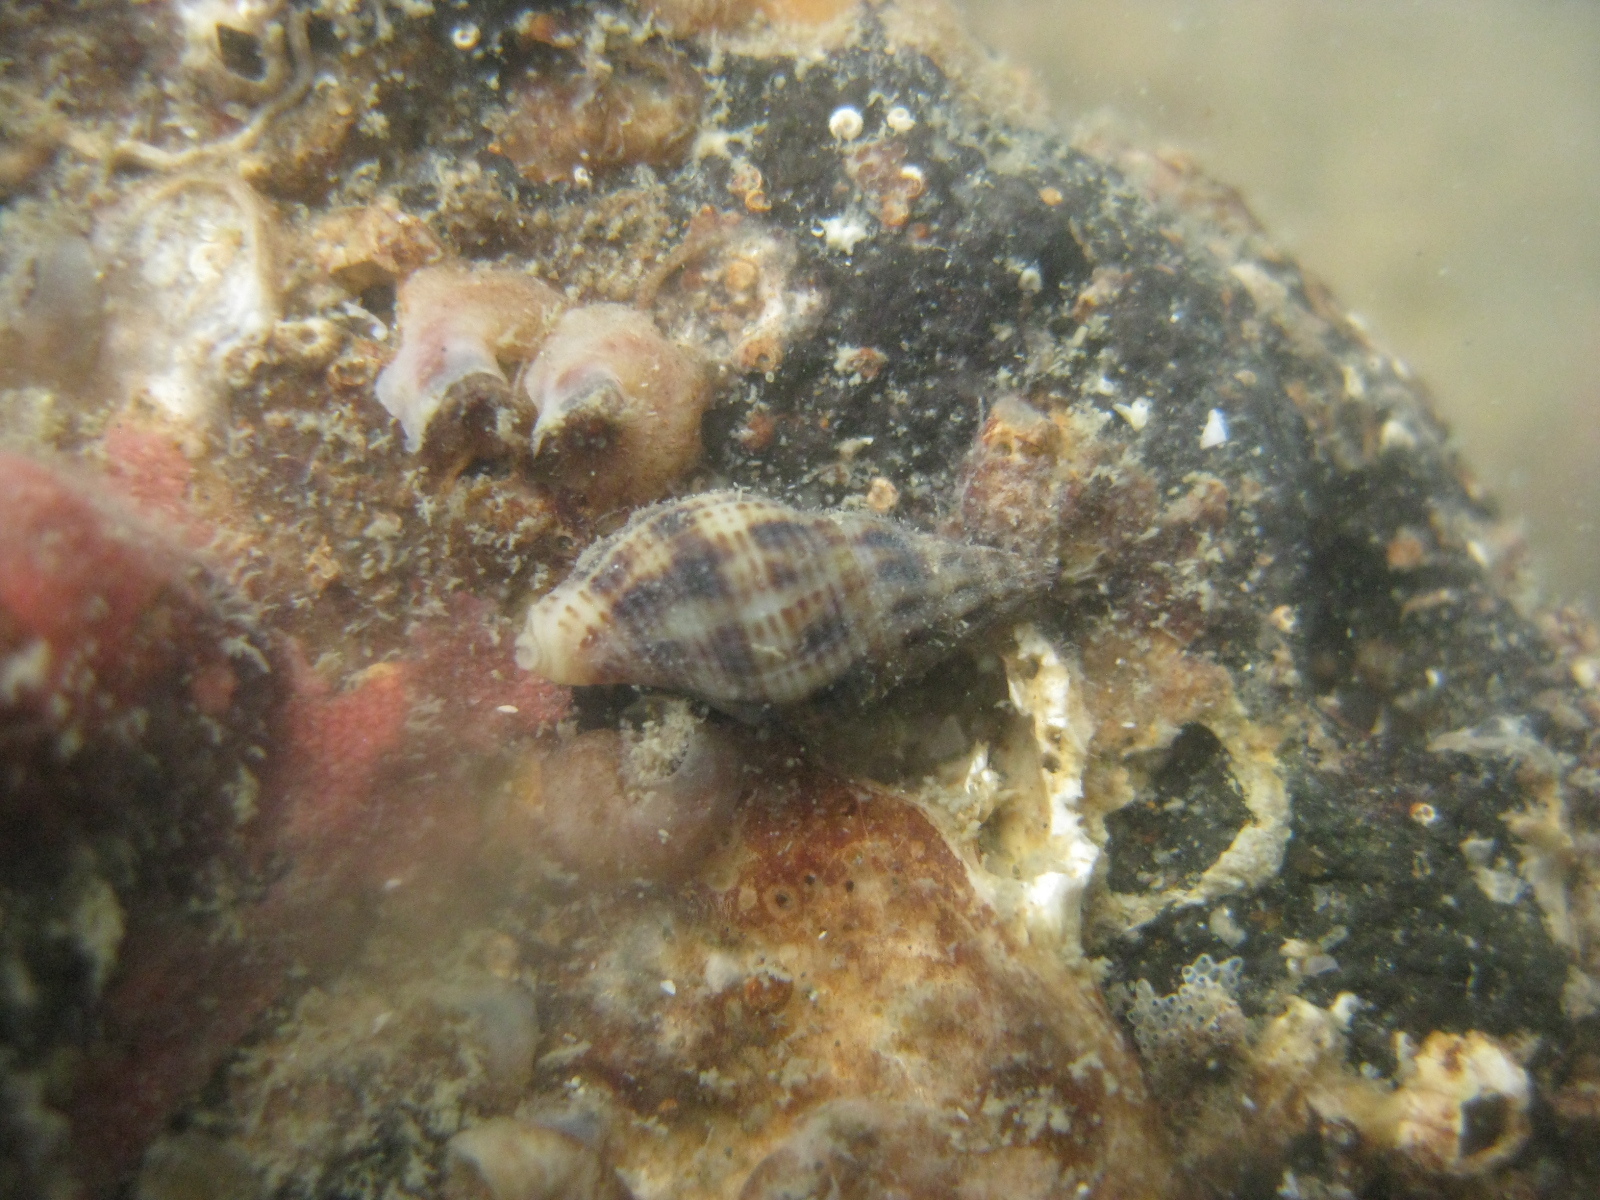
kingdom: Animalia
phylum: Mollusca
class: Gastropoda
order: Neogastropoda
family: Tudiclidae
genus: Buccinulum
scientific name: Buccinulum vittatum
